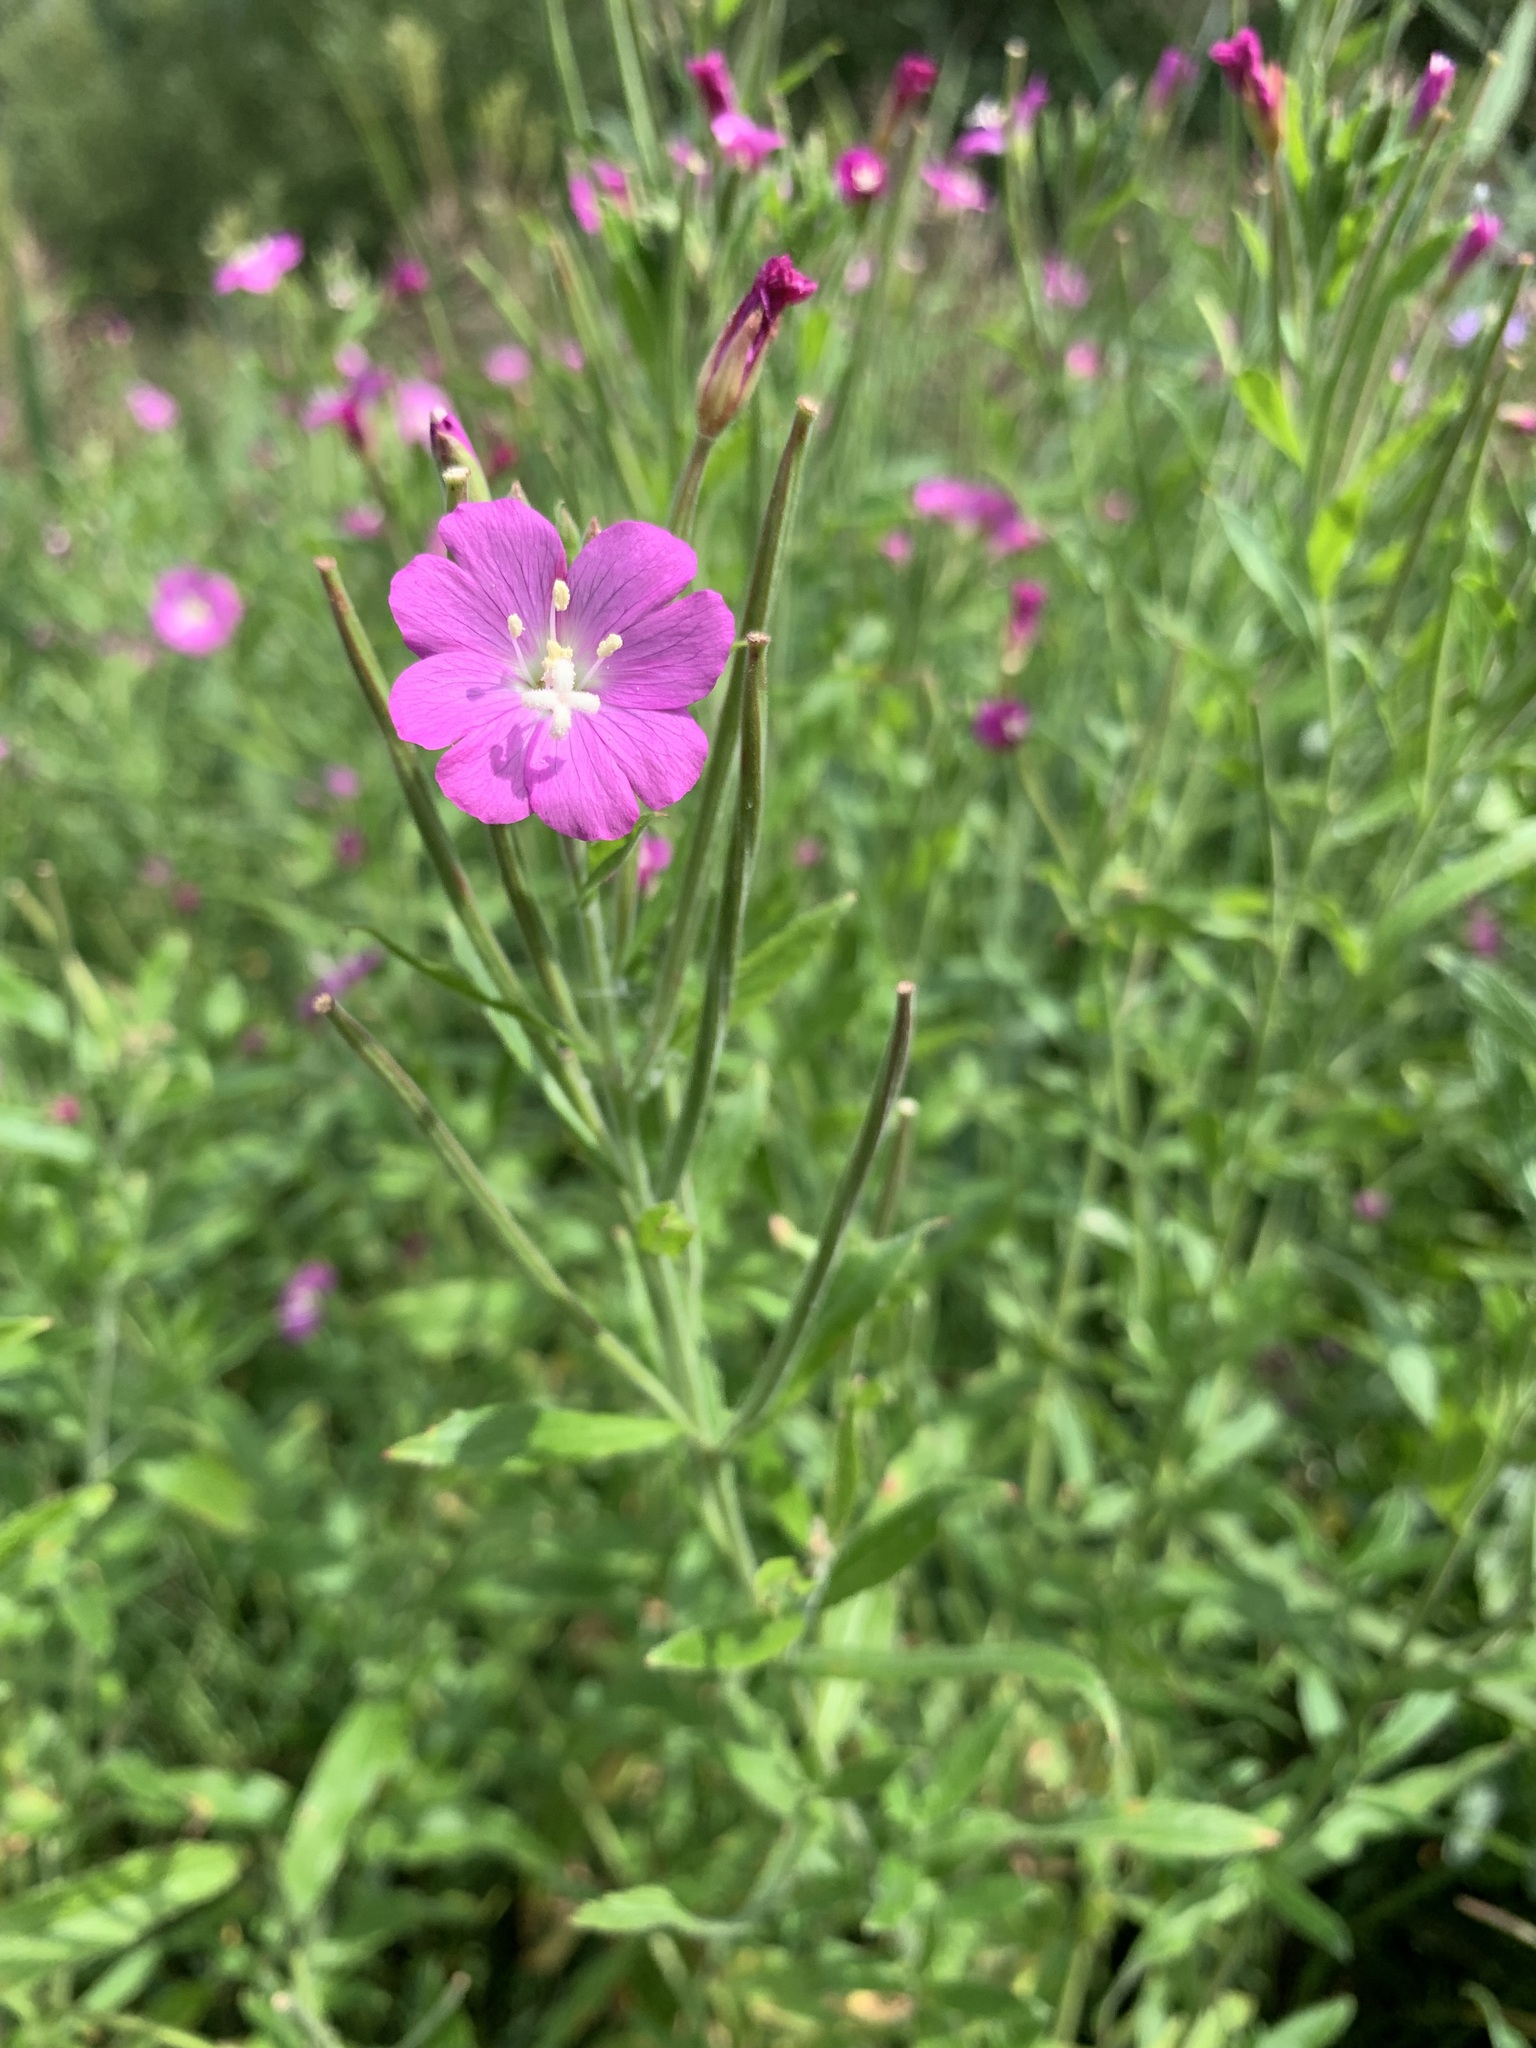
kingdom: Plantae
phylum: Tracheophyta
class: Magnoliopsida
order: Myrtales
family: Onagraceae
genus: Epilobium
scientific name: Epilobium hirsutum
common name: Great willowherb
